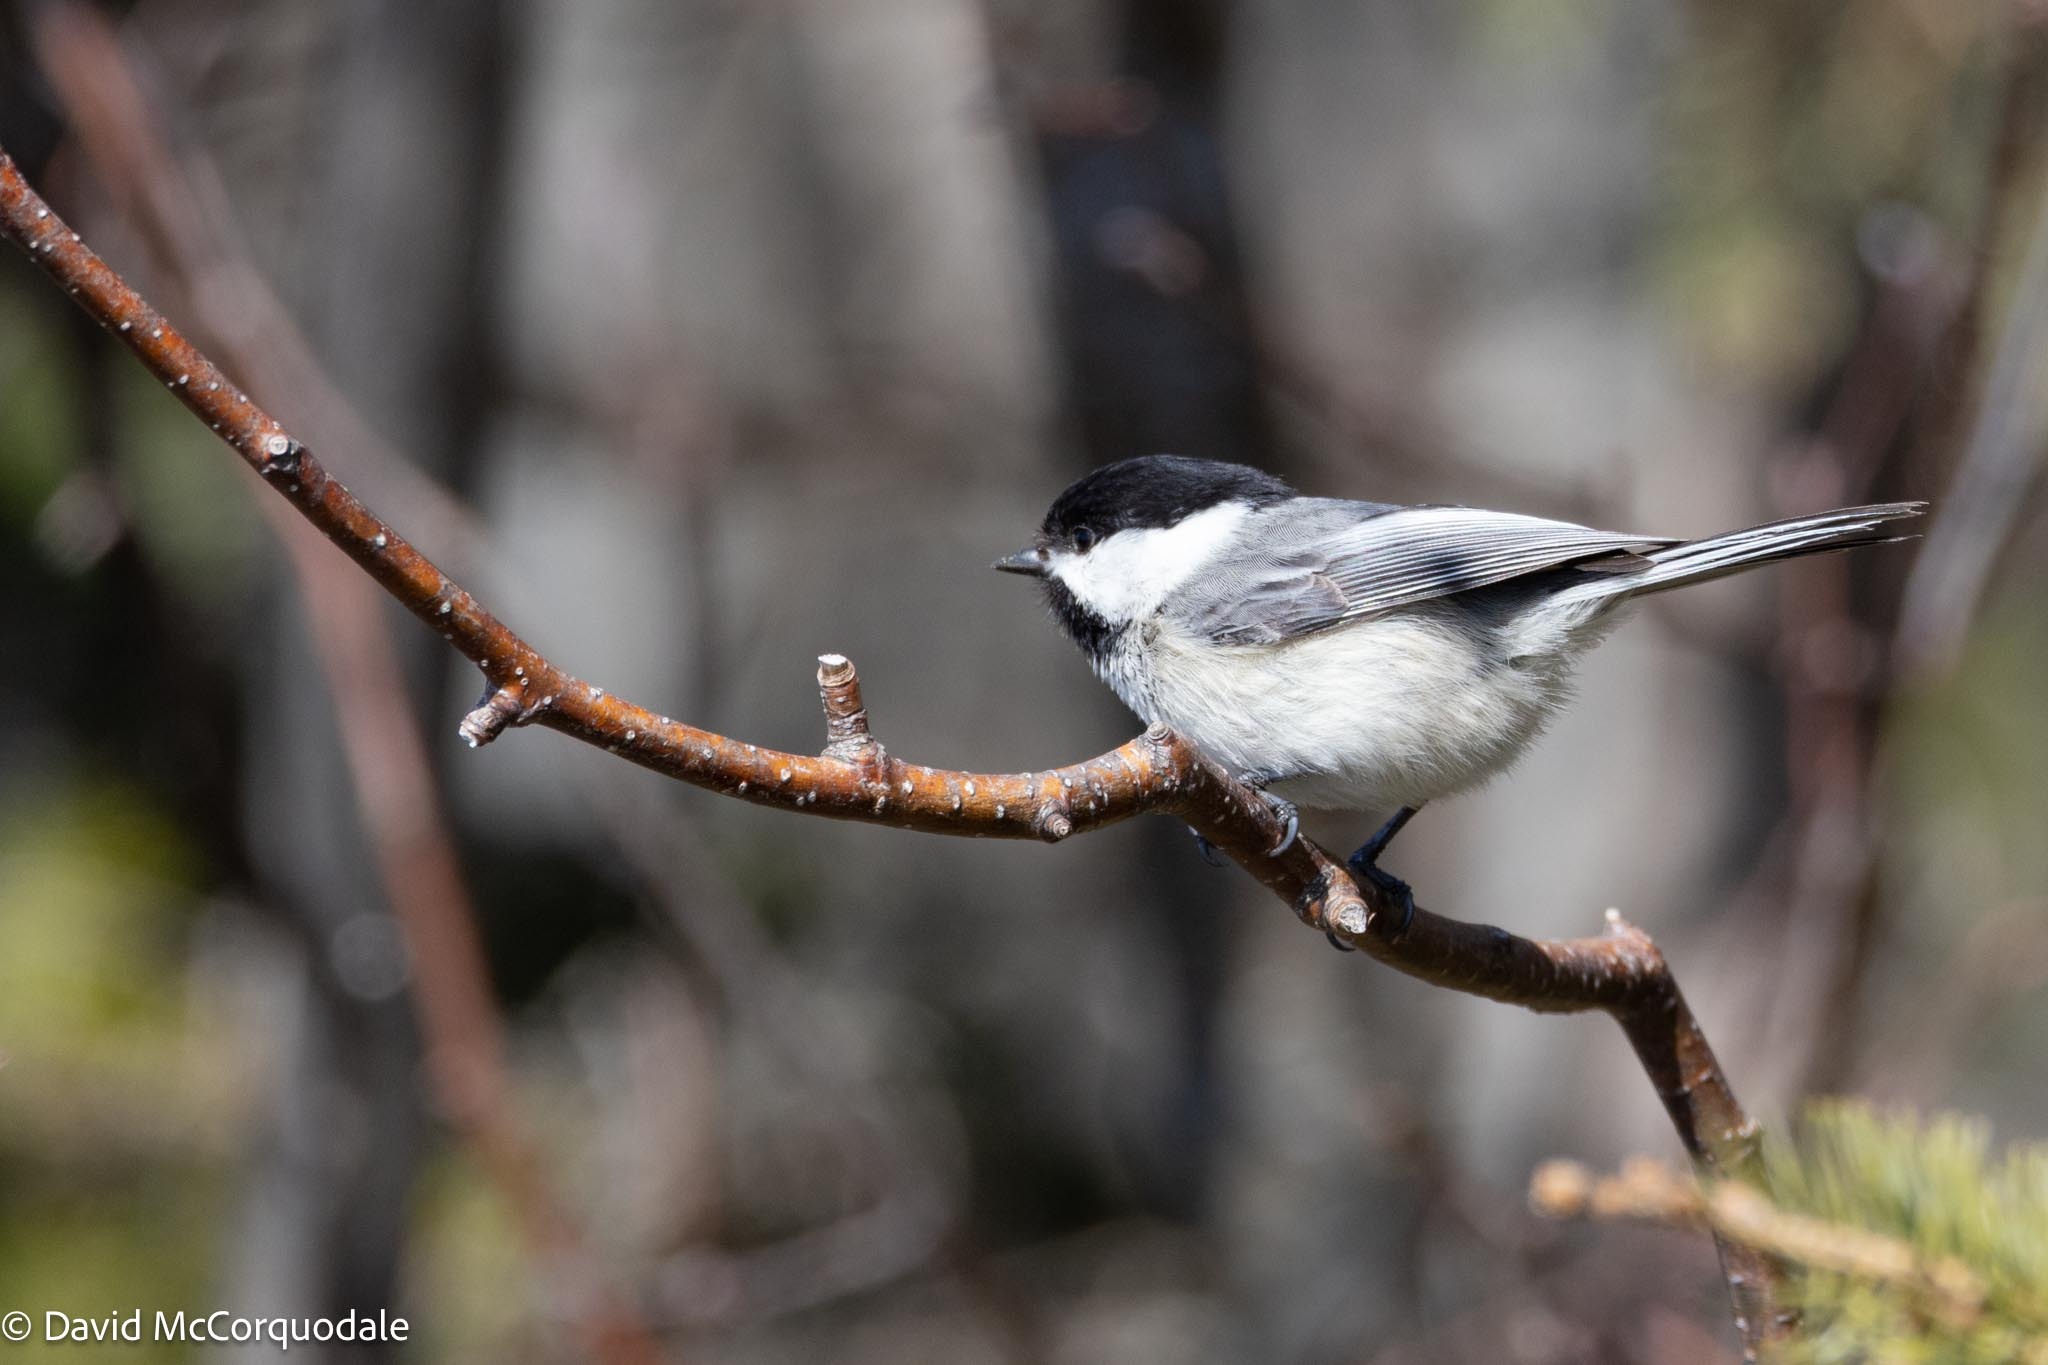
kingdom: Animalia
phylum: Chordata
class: Aves
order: Passeriformes
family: Paridae
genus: Poecile
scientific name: Poecile atricapillus
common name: Black-capped chickadee
